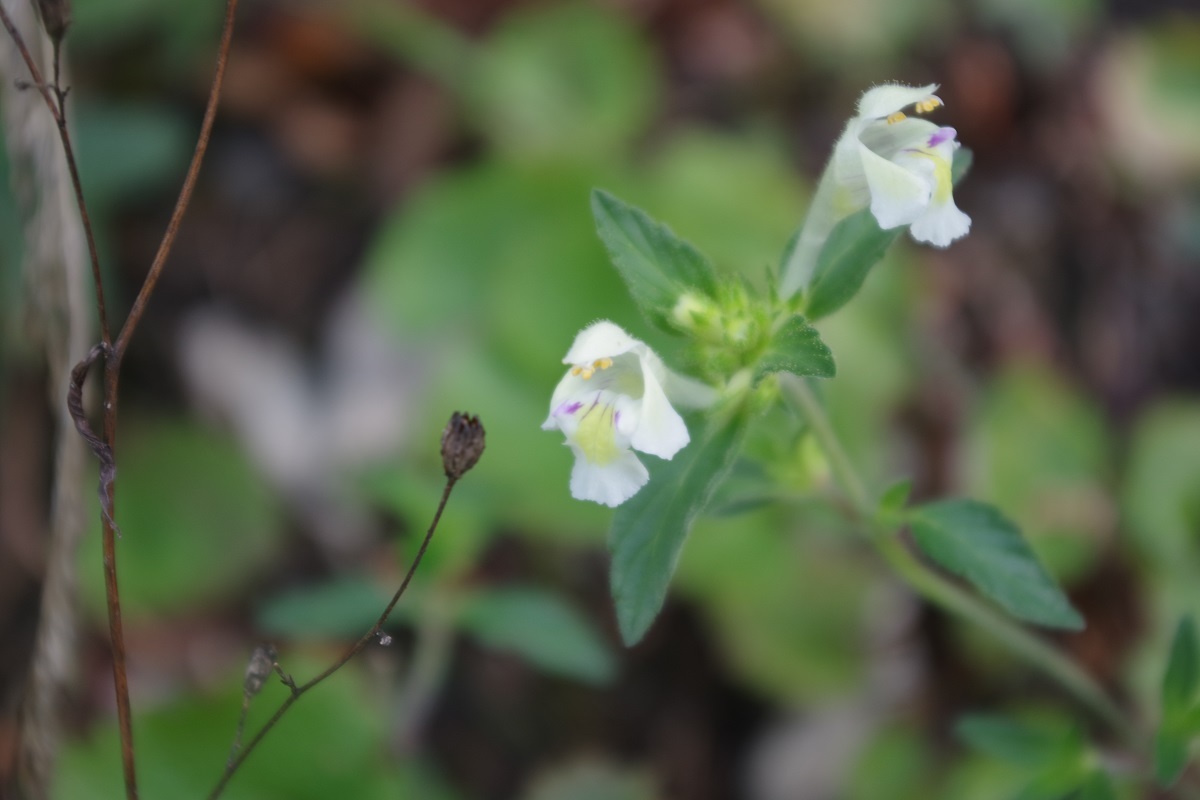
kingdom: Plantae
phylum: Tracheophyta
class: Magnoliopsida
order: Lamiales
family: Lamiaceae
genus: Galeopsis
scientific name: Galeopsis segetum
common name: Downy hemp-nettle
